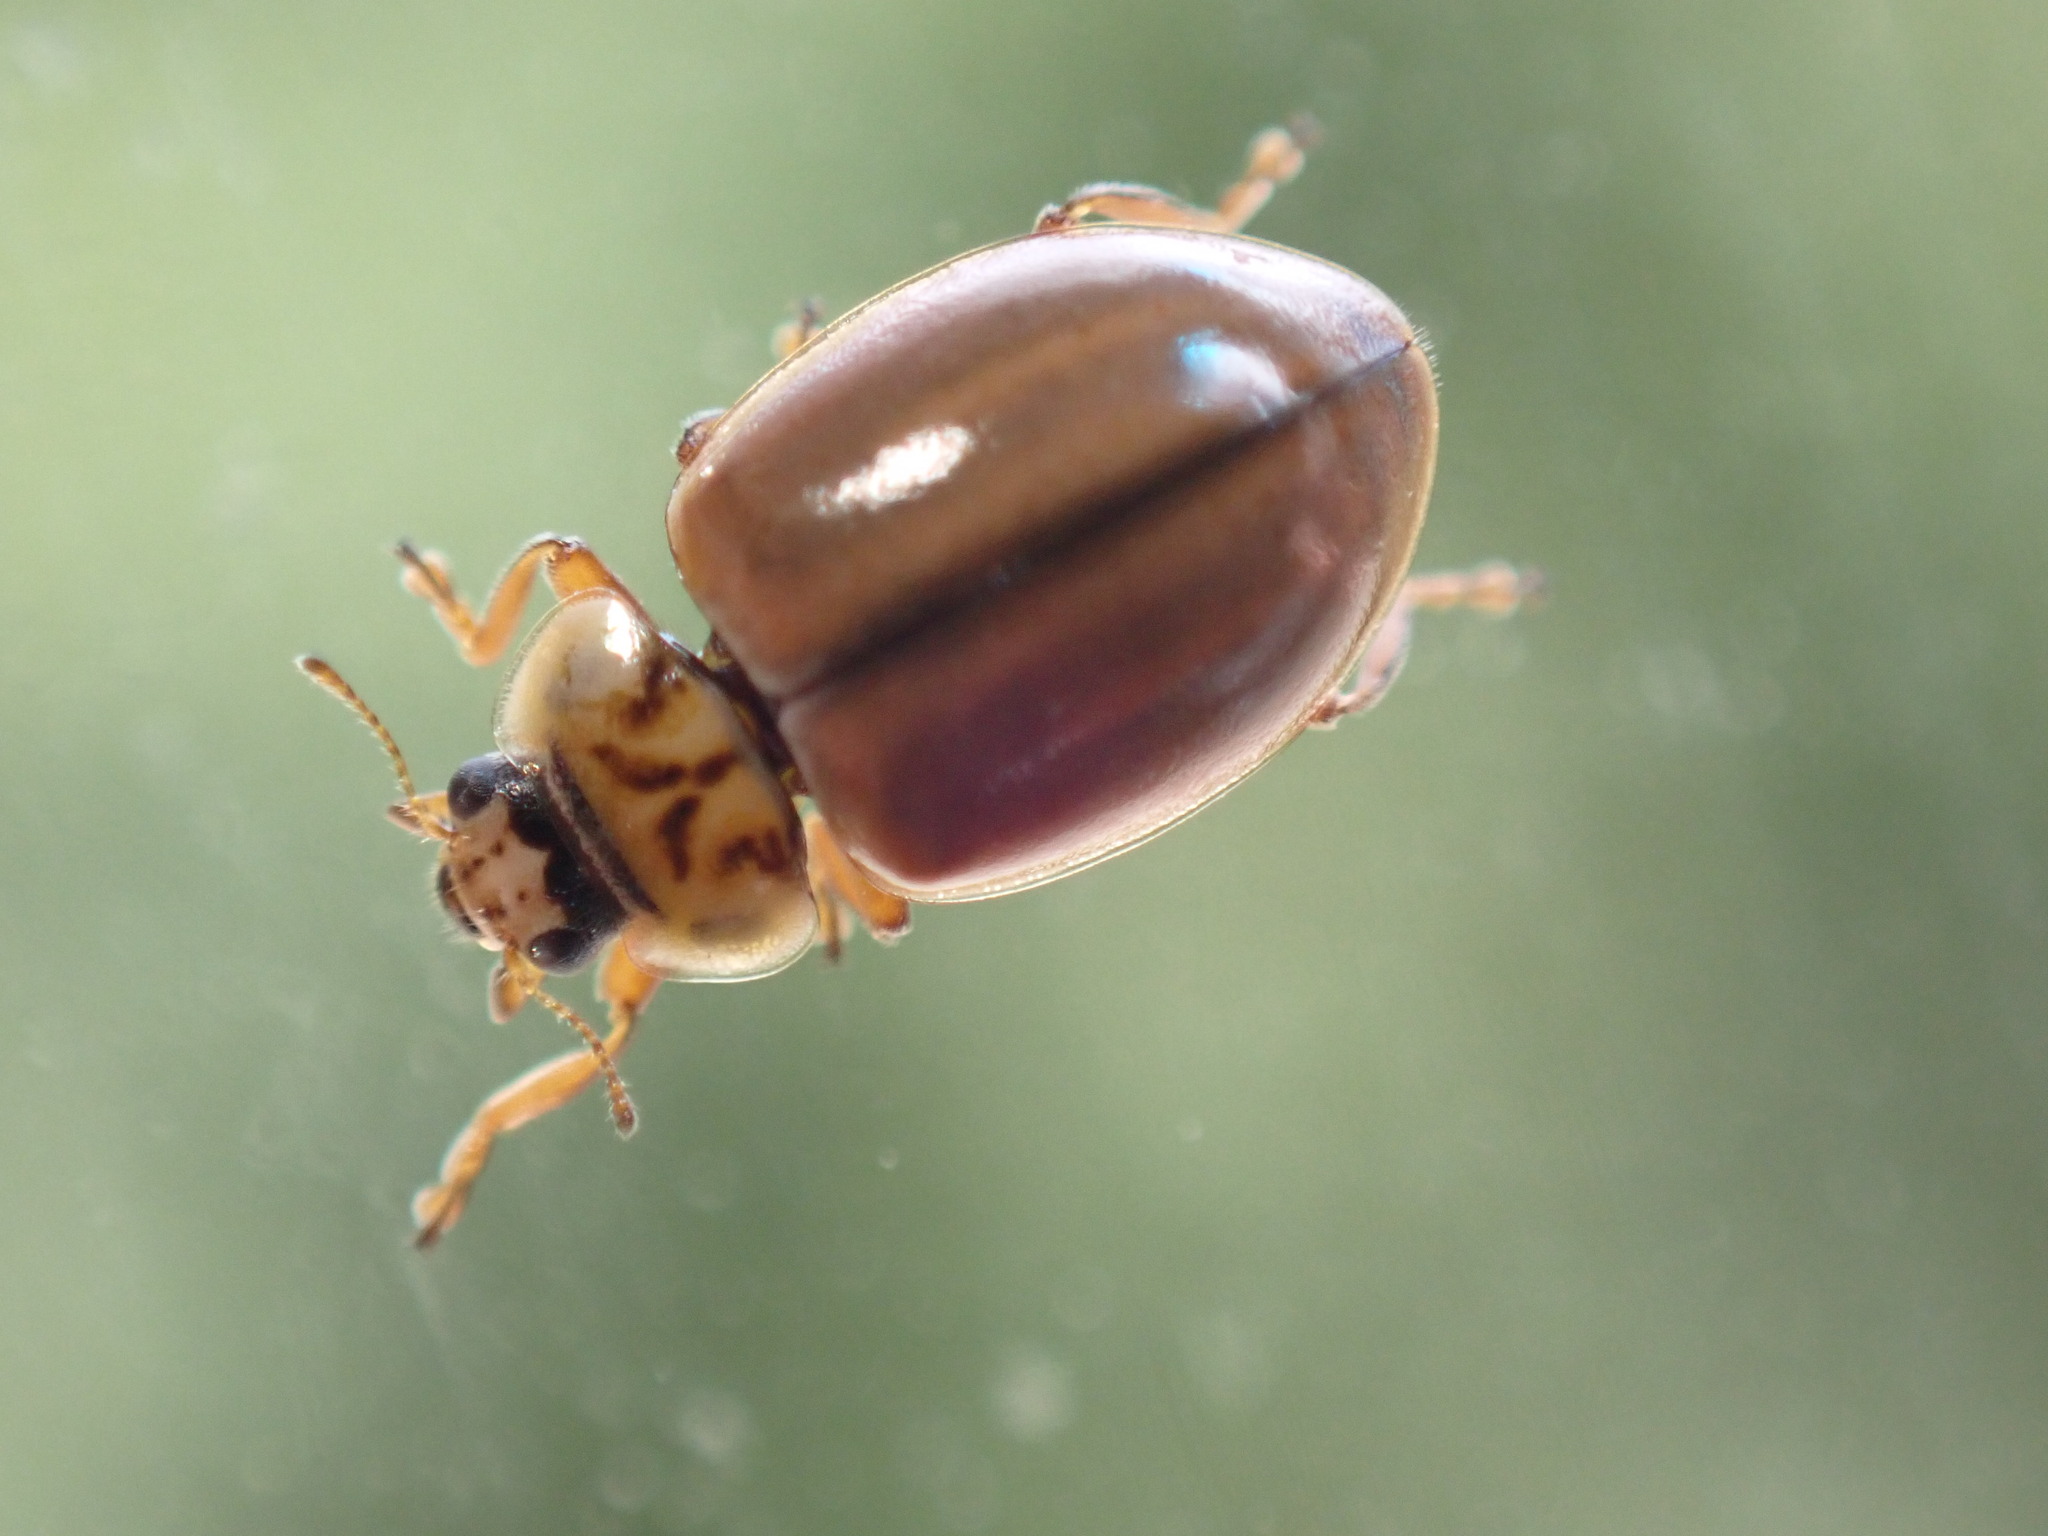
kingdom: Animalia
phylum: Arthropoda
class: Insecta
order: Coleoptera
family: Coccinellidae
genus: Aphidecta
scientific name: Aphidecta obliterata
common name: Larch ladybird
